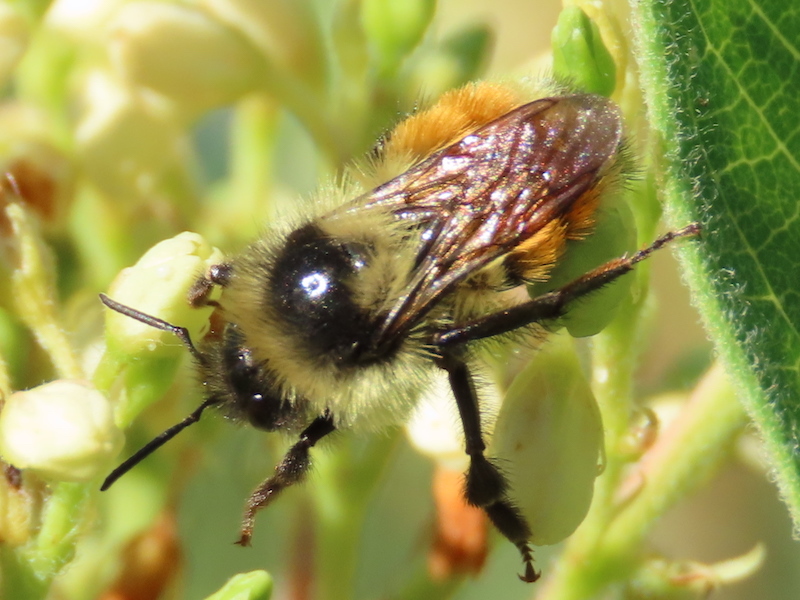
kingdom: Animalia
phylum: Arthropoda
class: Insecta
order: Hymenoptera
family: Apidae
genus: Bombus
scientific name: Bombus ternarius
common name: Tri-colored bumble bee
